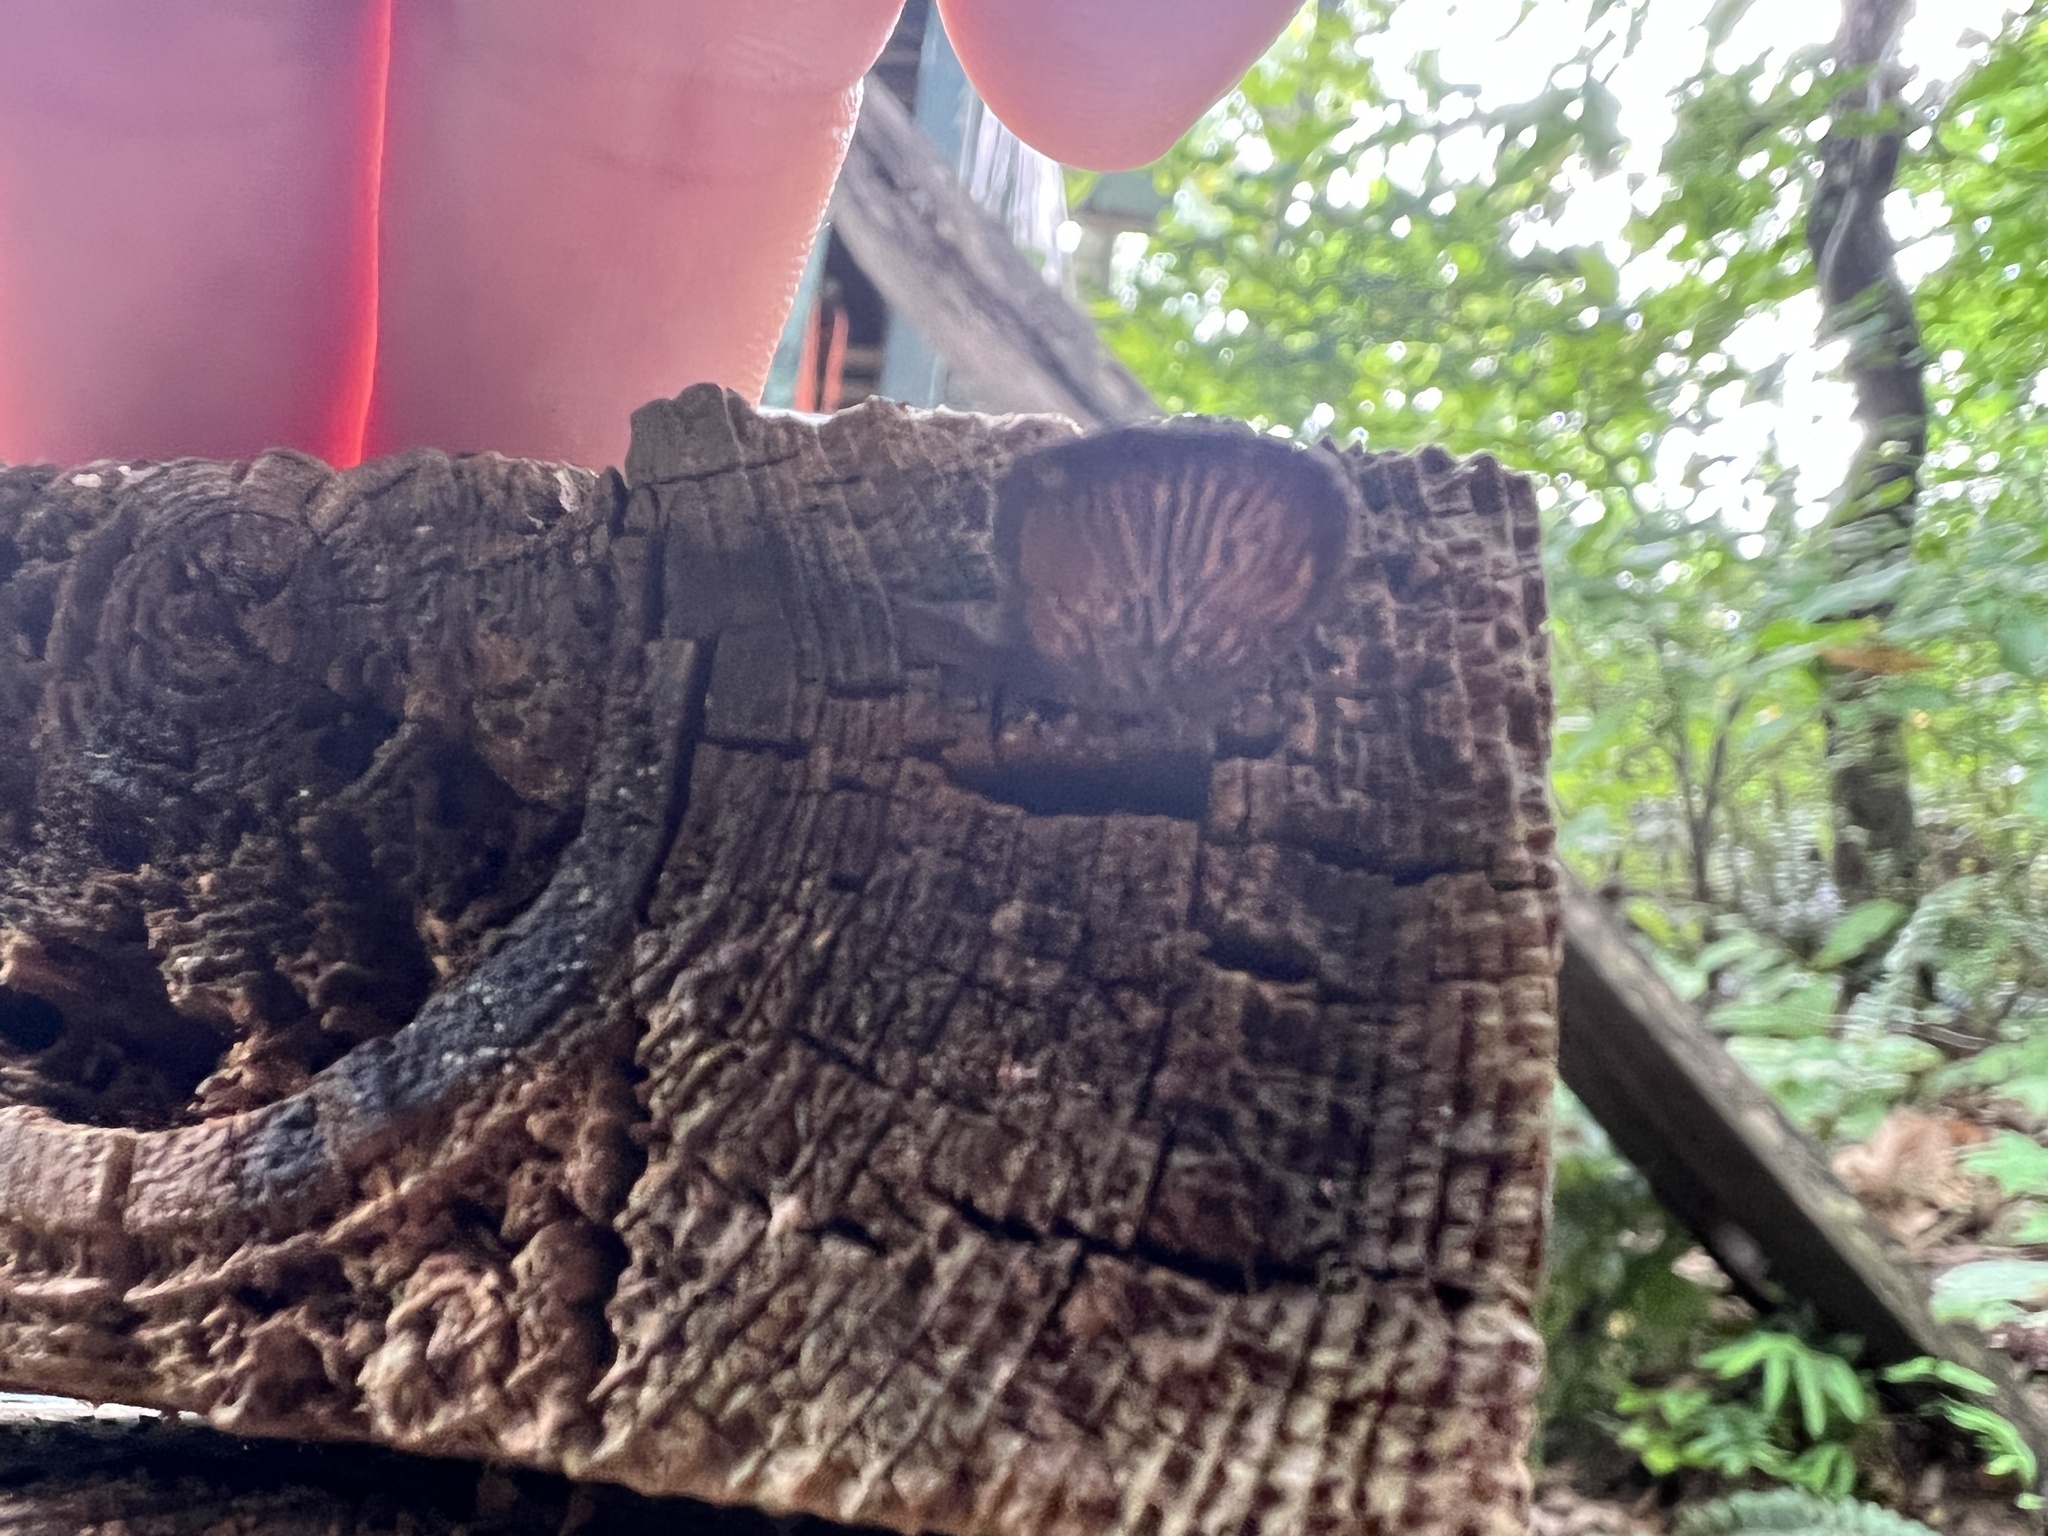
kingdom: Fungi
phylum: Basidiomycota
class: Agaricomycetes
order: Gloeophyllales
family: Gloeophyllaceae
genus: Gloeophyllum
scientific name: Gloeophyllum sepiarium
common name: Conifer mazegill
